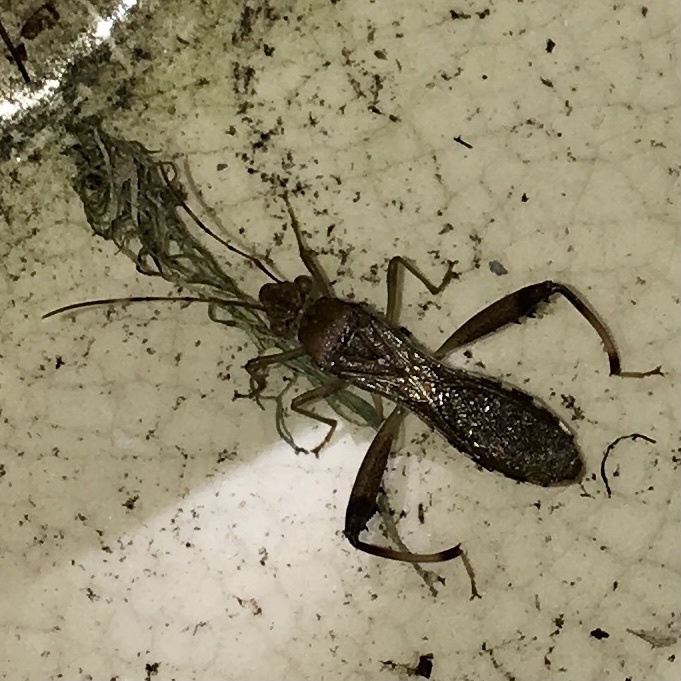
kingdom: Animalia
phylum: Arthropoda
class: Insecta
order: Hemiptera
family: Alydidae
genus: Hyalymenus
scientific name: Hyalymenus tarsatus
